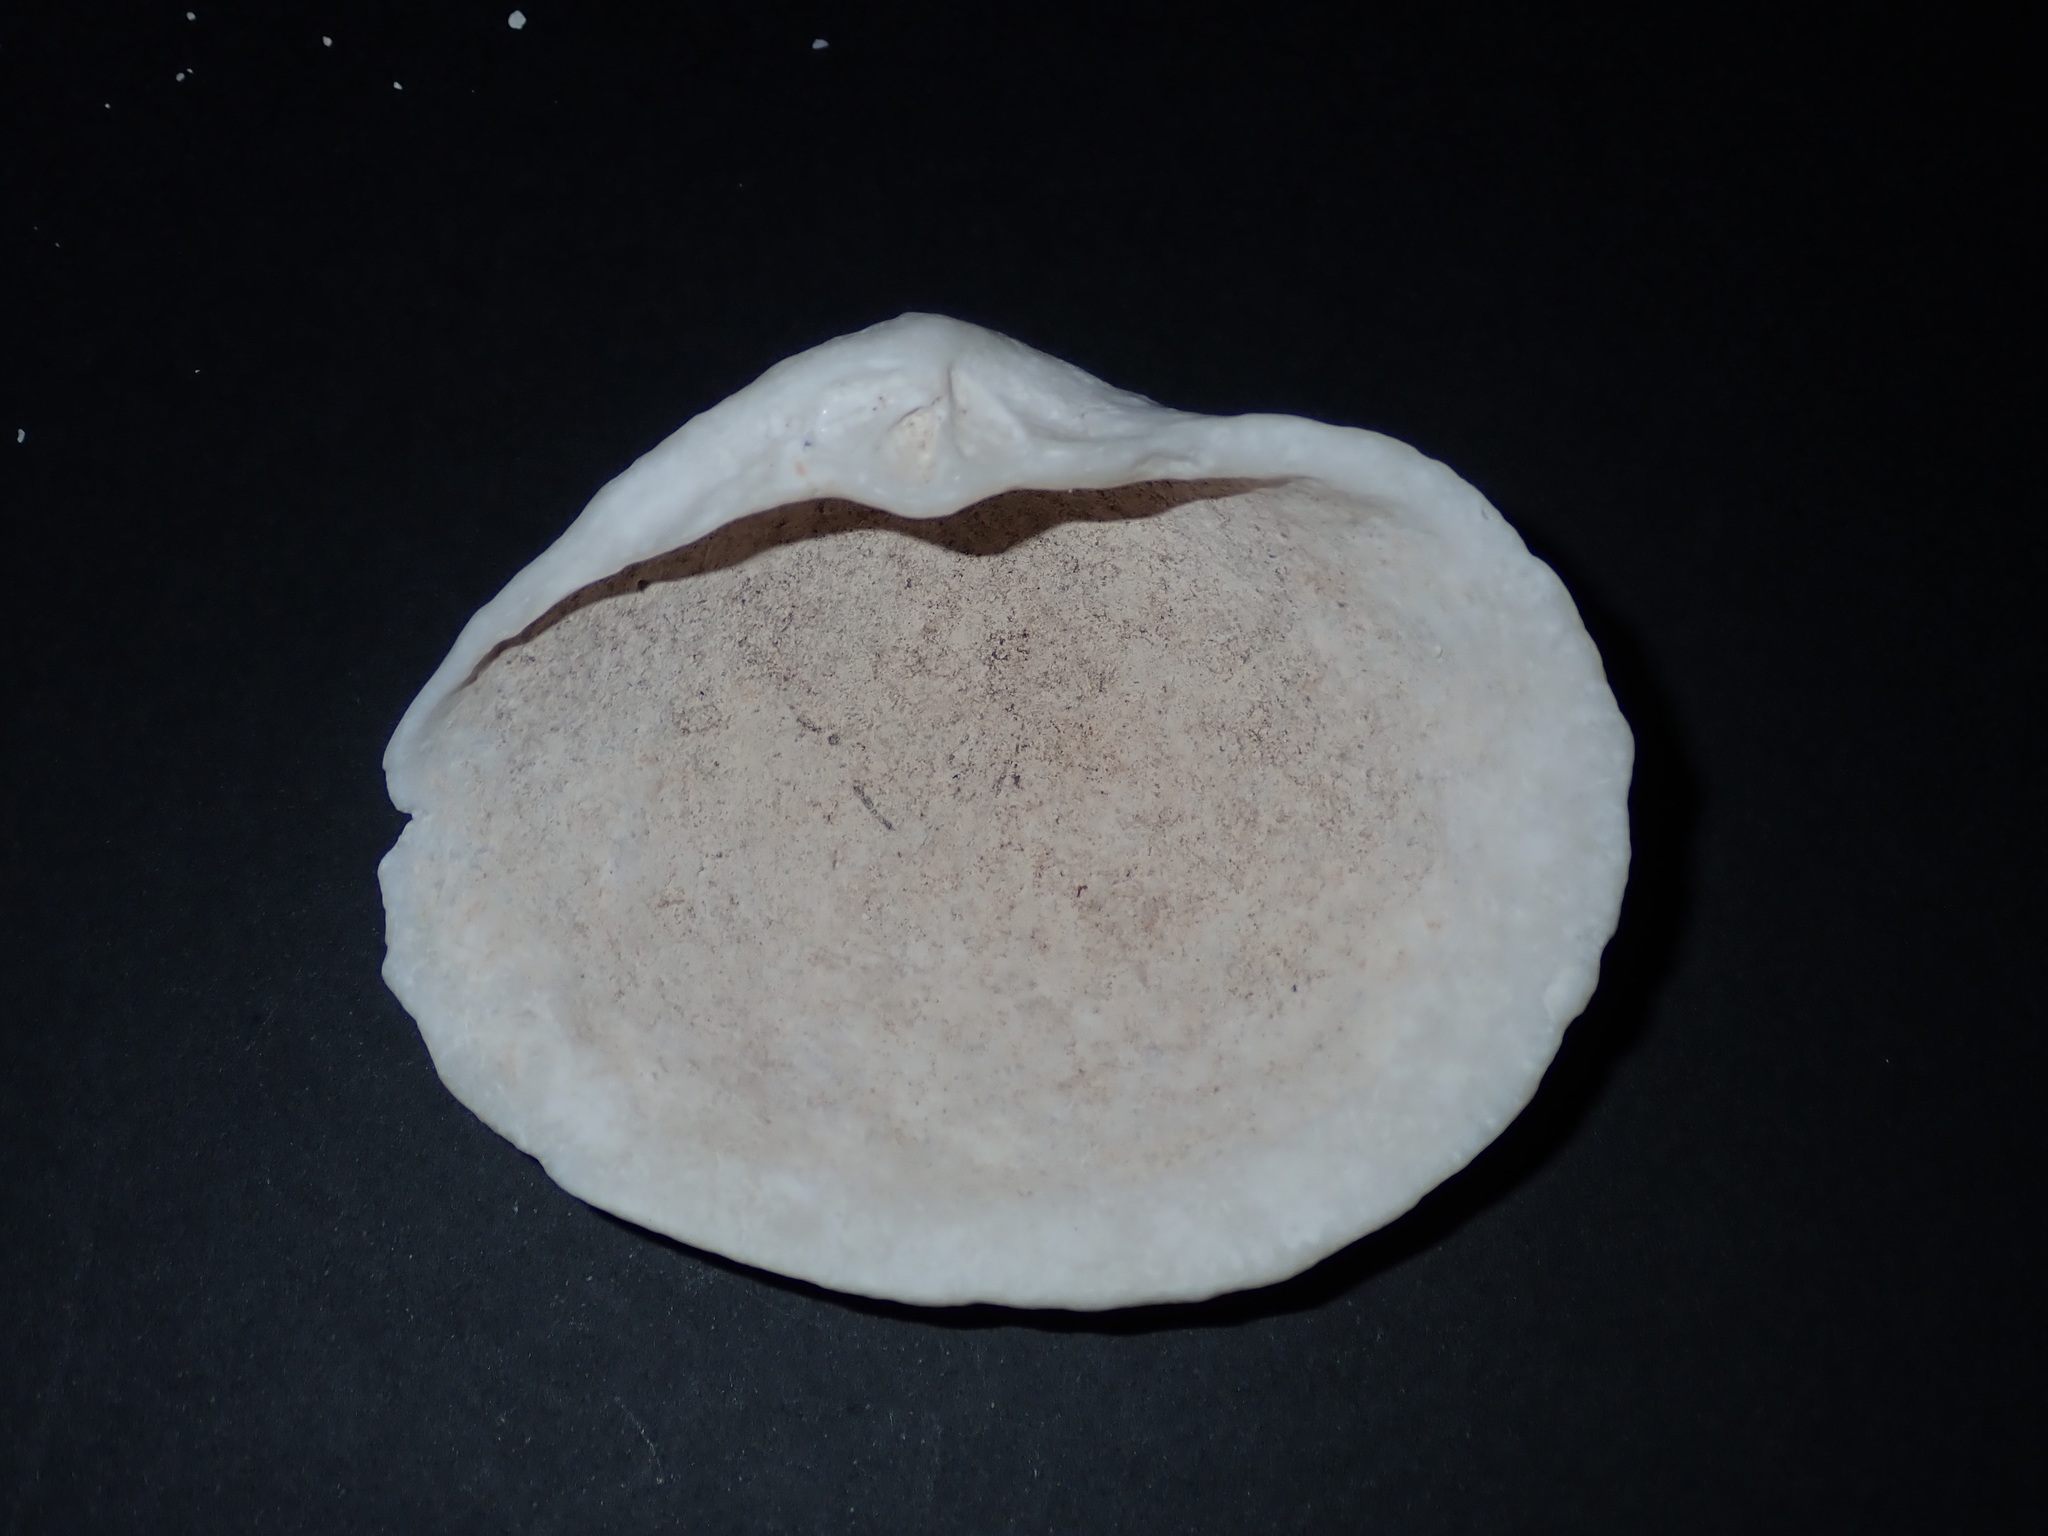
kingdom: Animalia
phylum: Mollusca
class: Bivalvia
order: Lucinida
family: Lucinidae
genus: Fimbria
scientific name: Fimbria fimbriata
